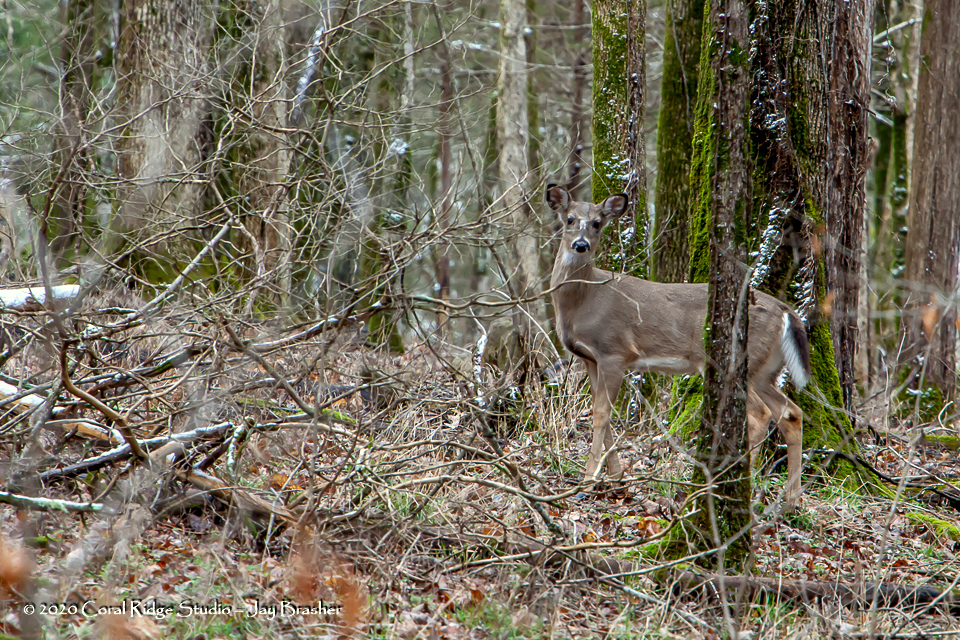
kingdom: Animalia
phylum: Chordata
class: Mammalia
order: Artiodactyla
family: Cervidae
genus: Odocoileus
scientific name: Odocoileus virginianus
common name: White-tailed deer
